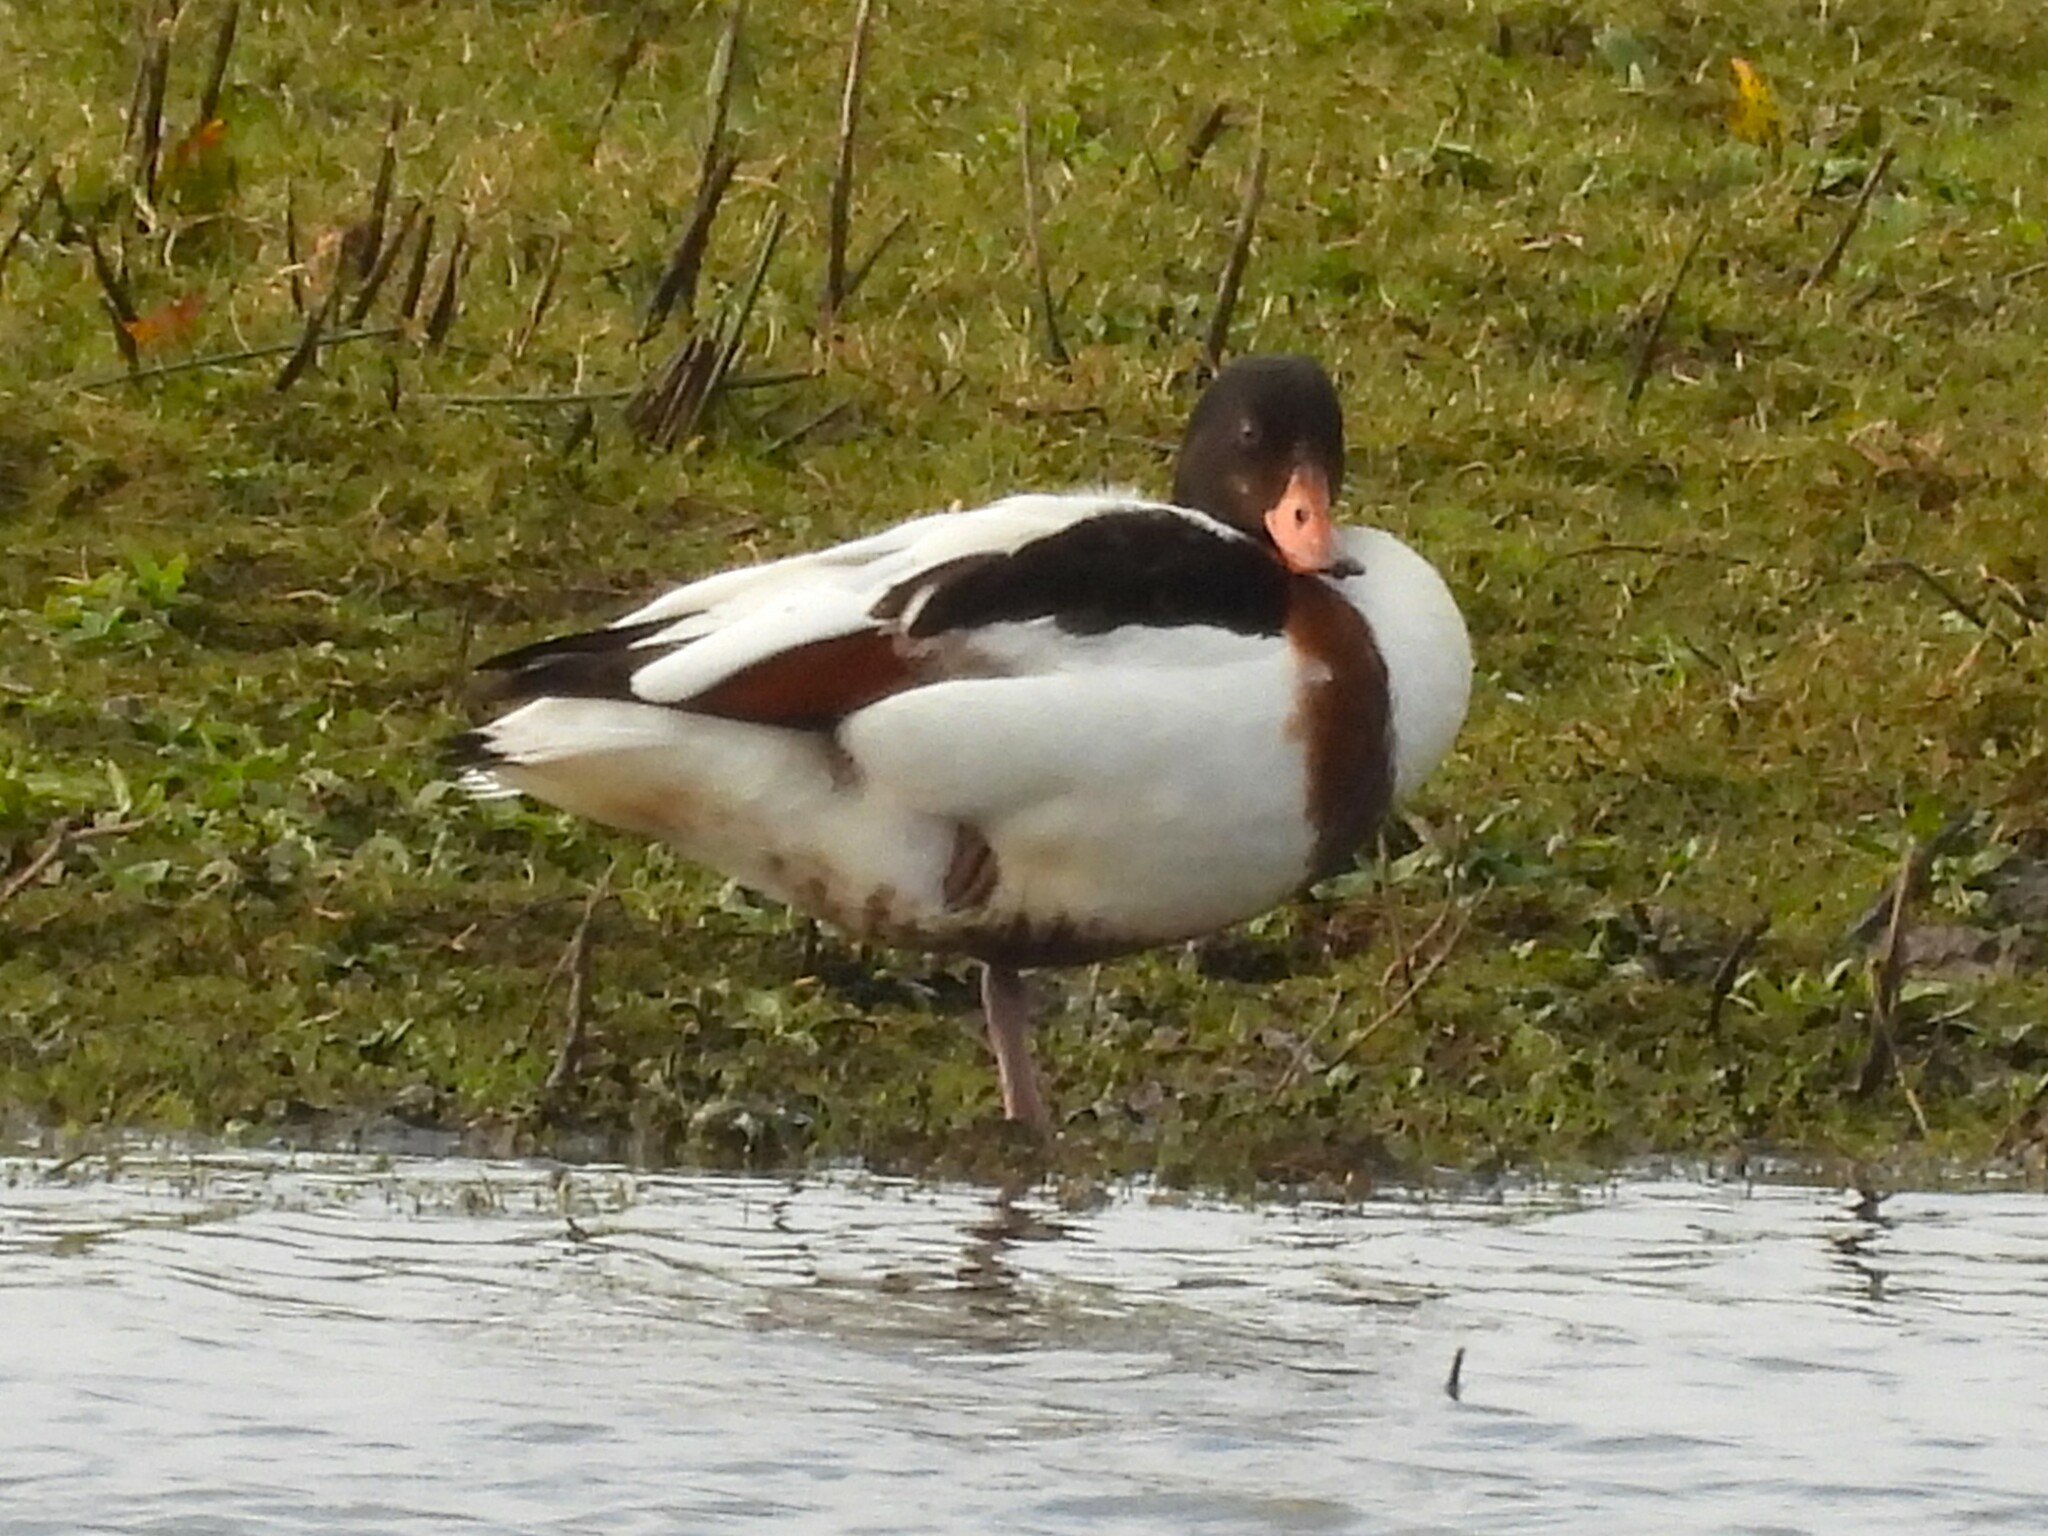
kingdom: Animalia
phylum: Chordata
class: Aves
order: Anseriformes
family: Anatidae
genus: Tadorna
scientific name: Tadorna tadorna
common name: Common shelduck
